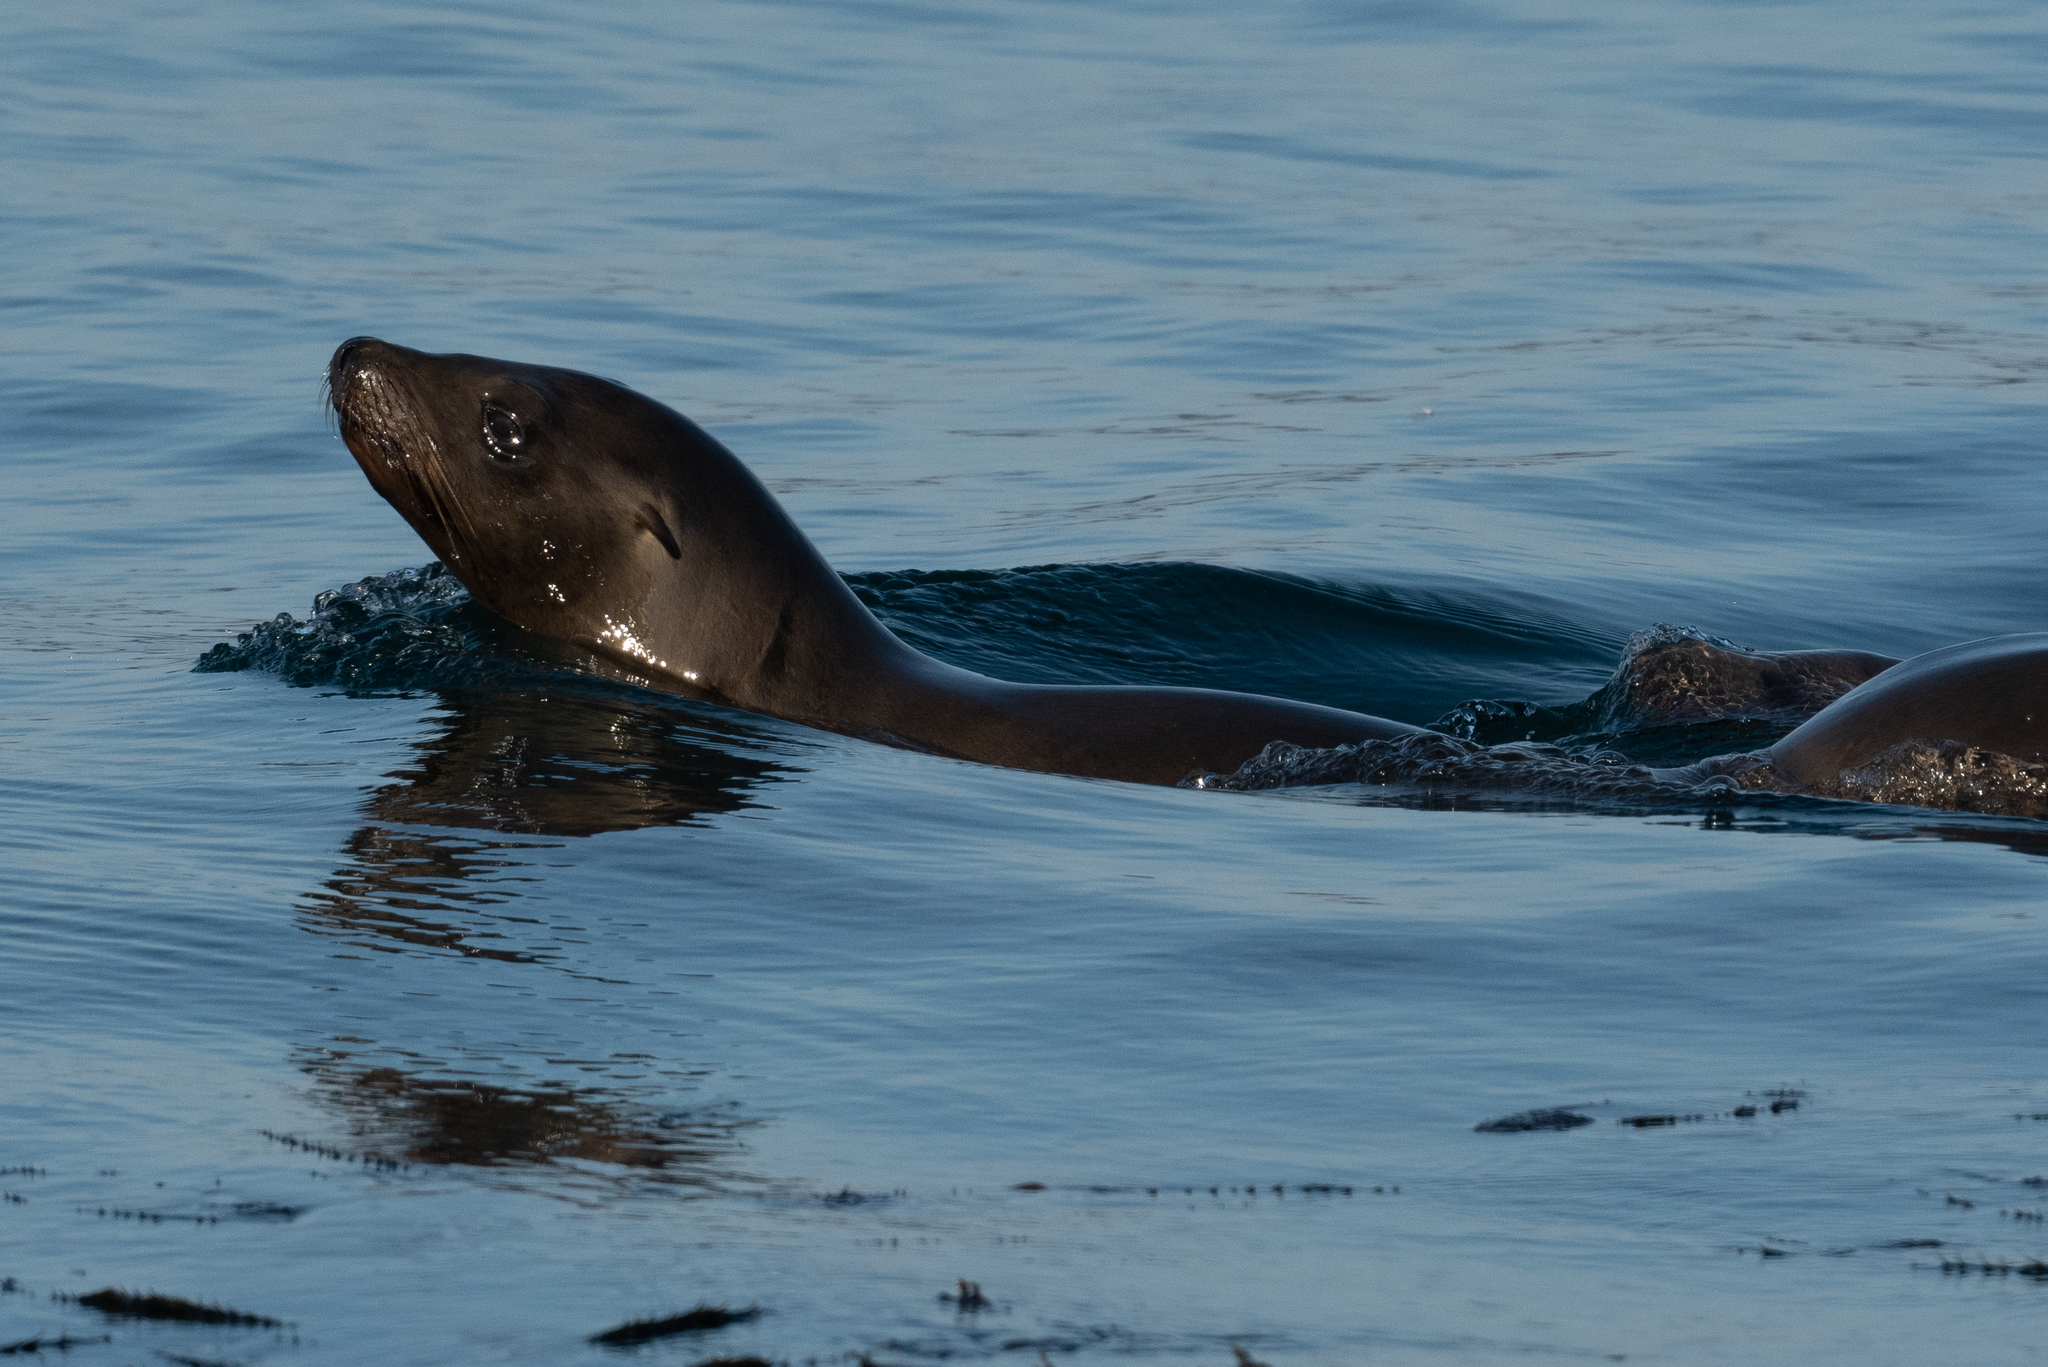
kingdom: Animalia
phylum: Chordata
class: Mammalia
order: Carnivora
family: Otariidae
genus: Zalophus
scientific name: Zalophus californianus
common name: California sea lion
